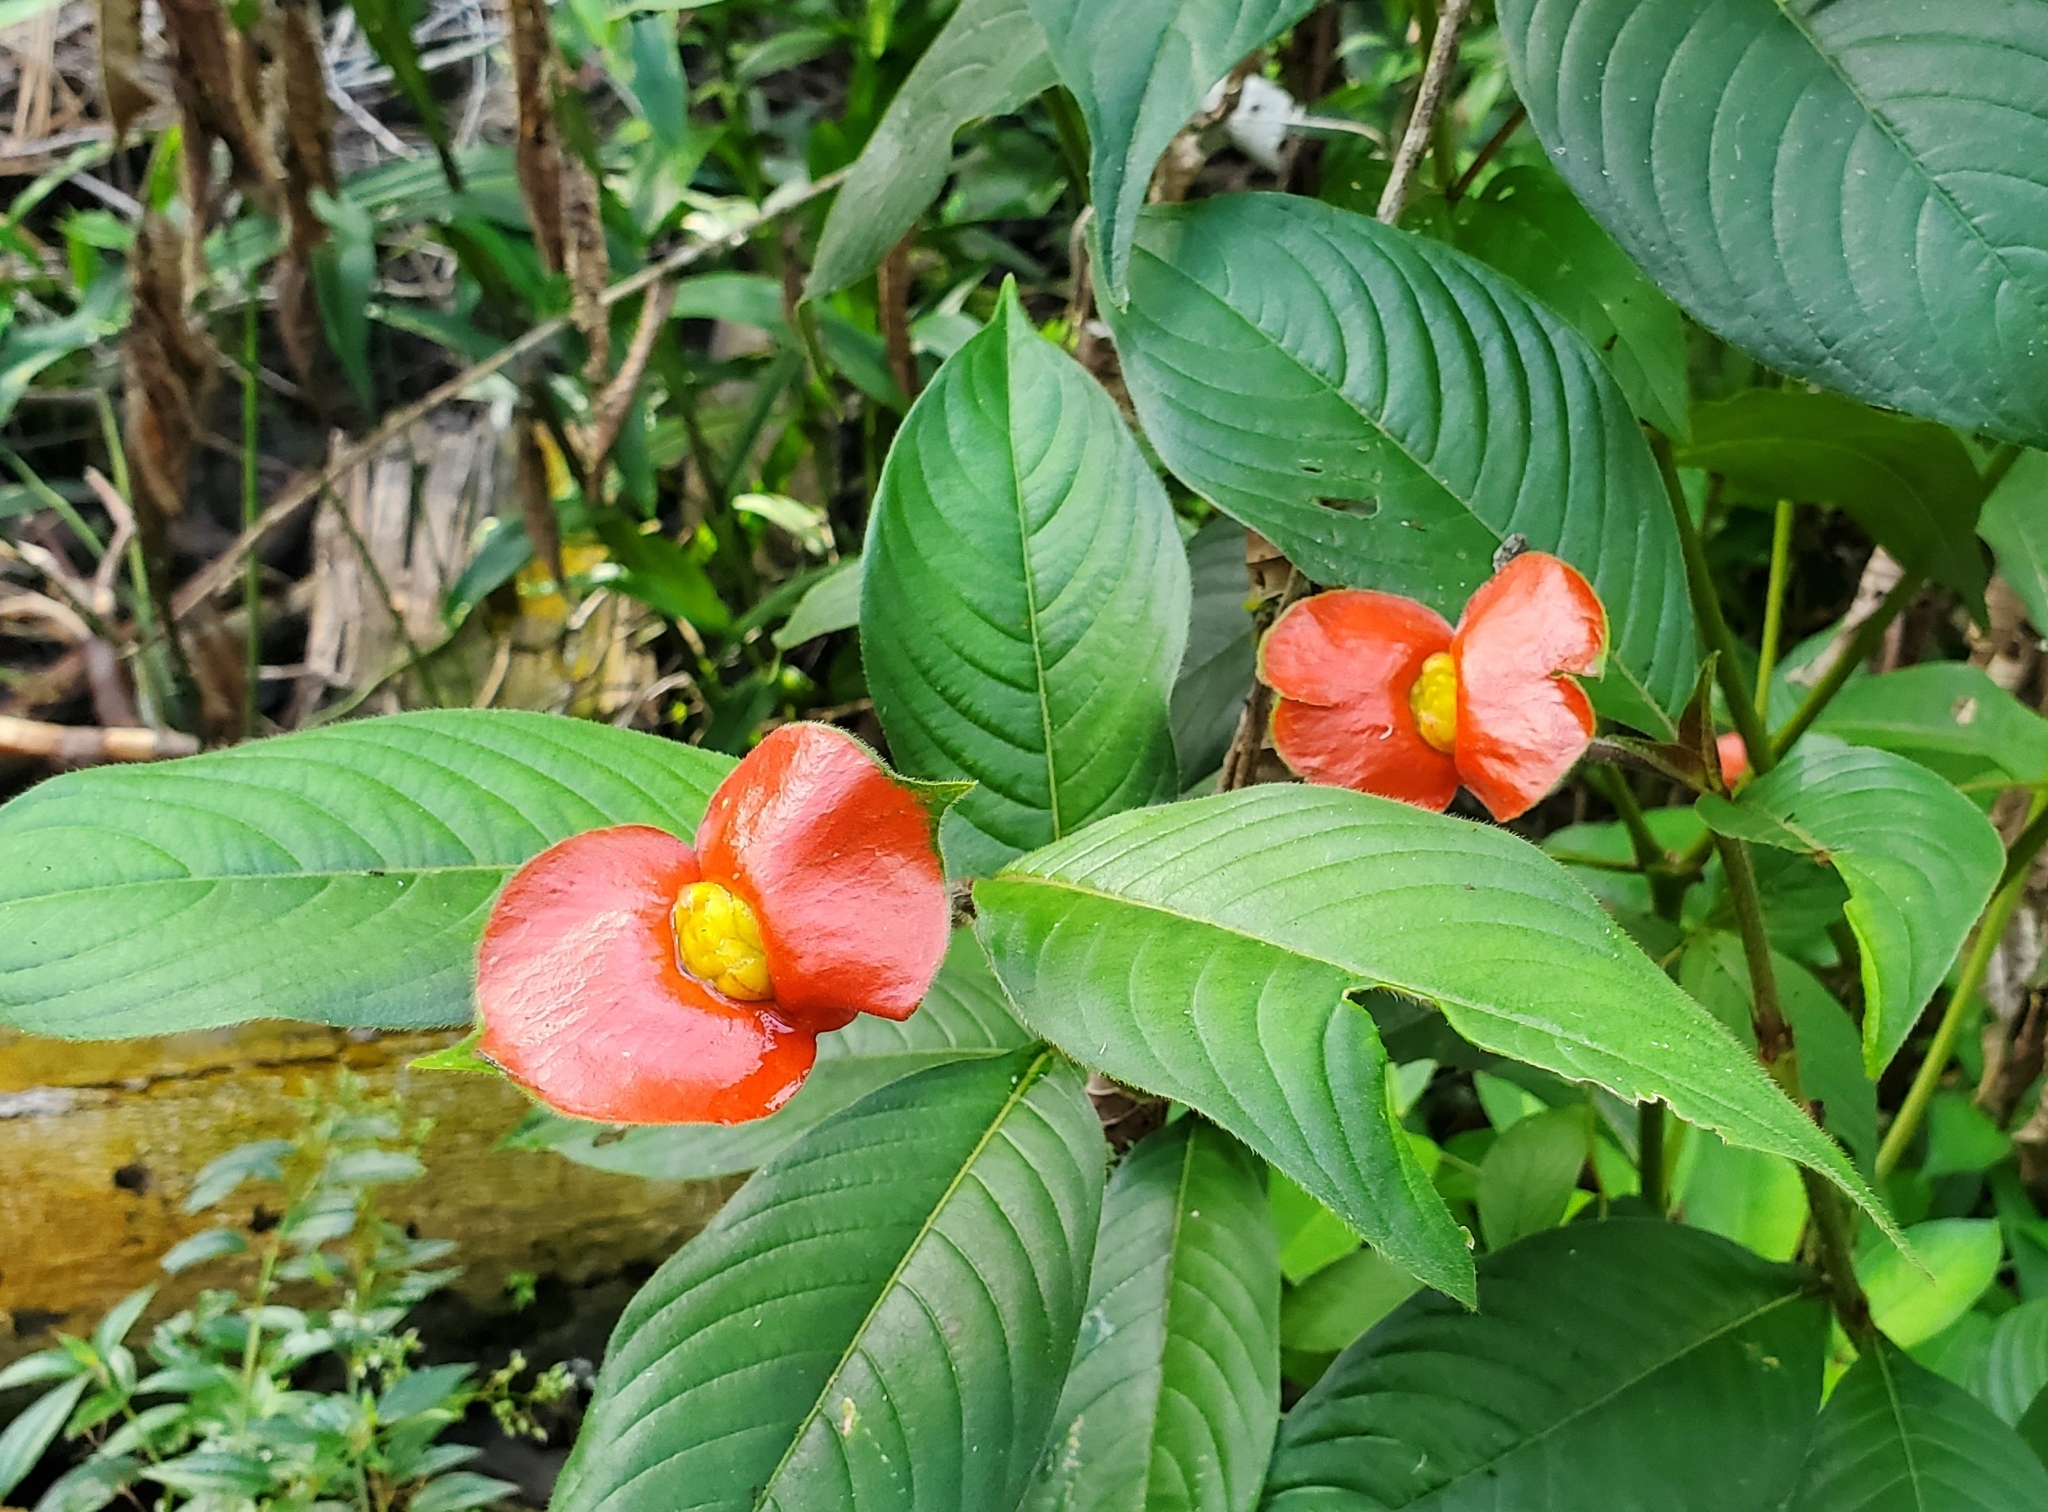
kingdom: Plantae
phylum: Tracheophyta
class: Magnoliopsida
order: Gentianales
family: Rubiaceae
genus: Palicourea
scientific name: Palicourea tomentosa
